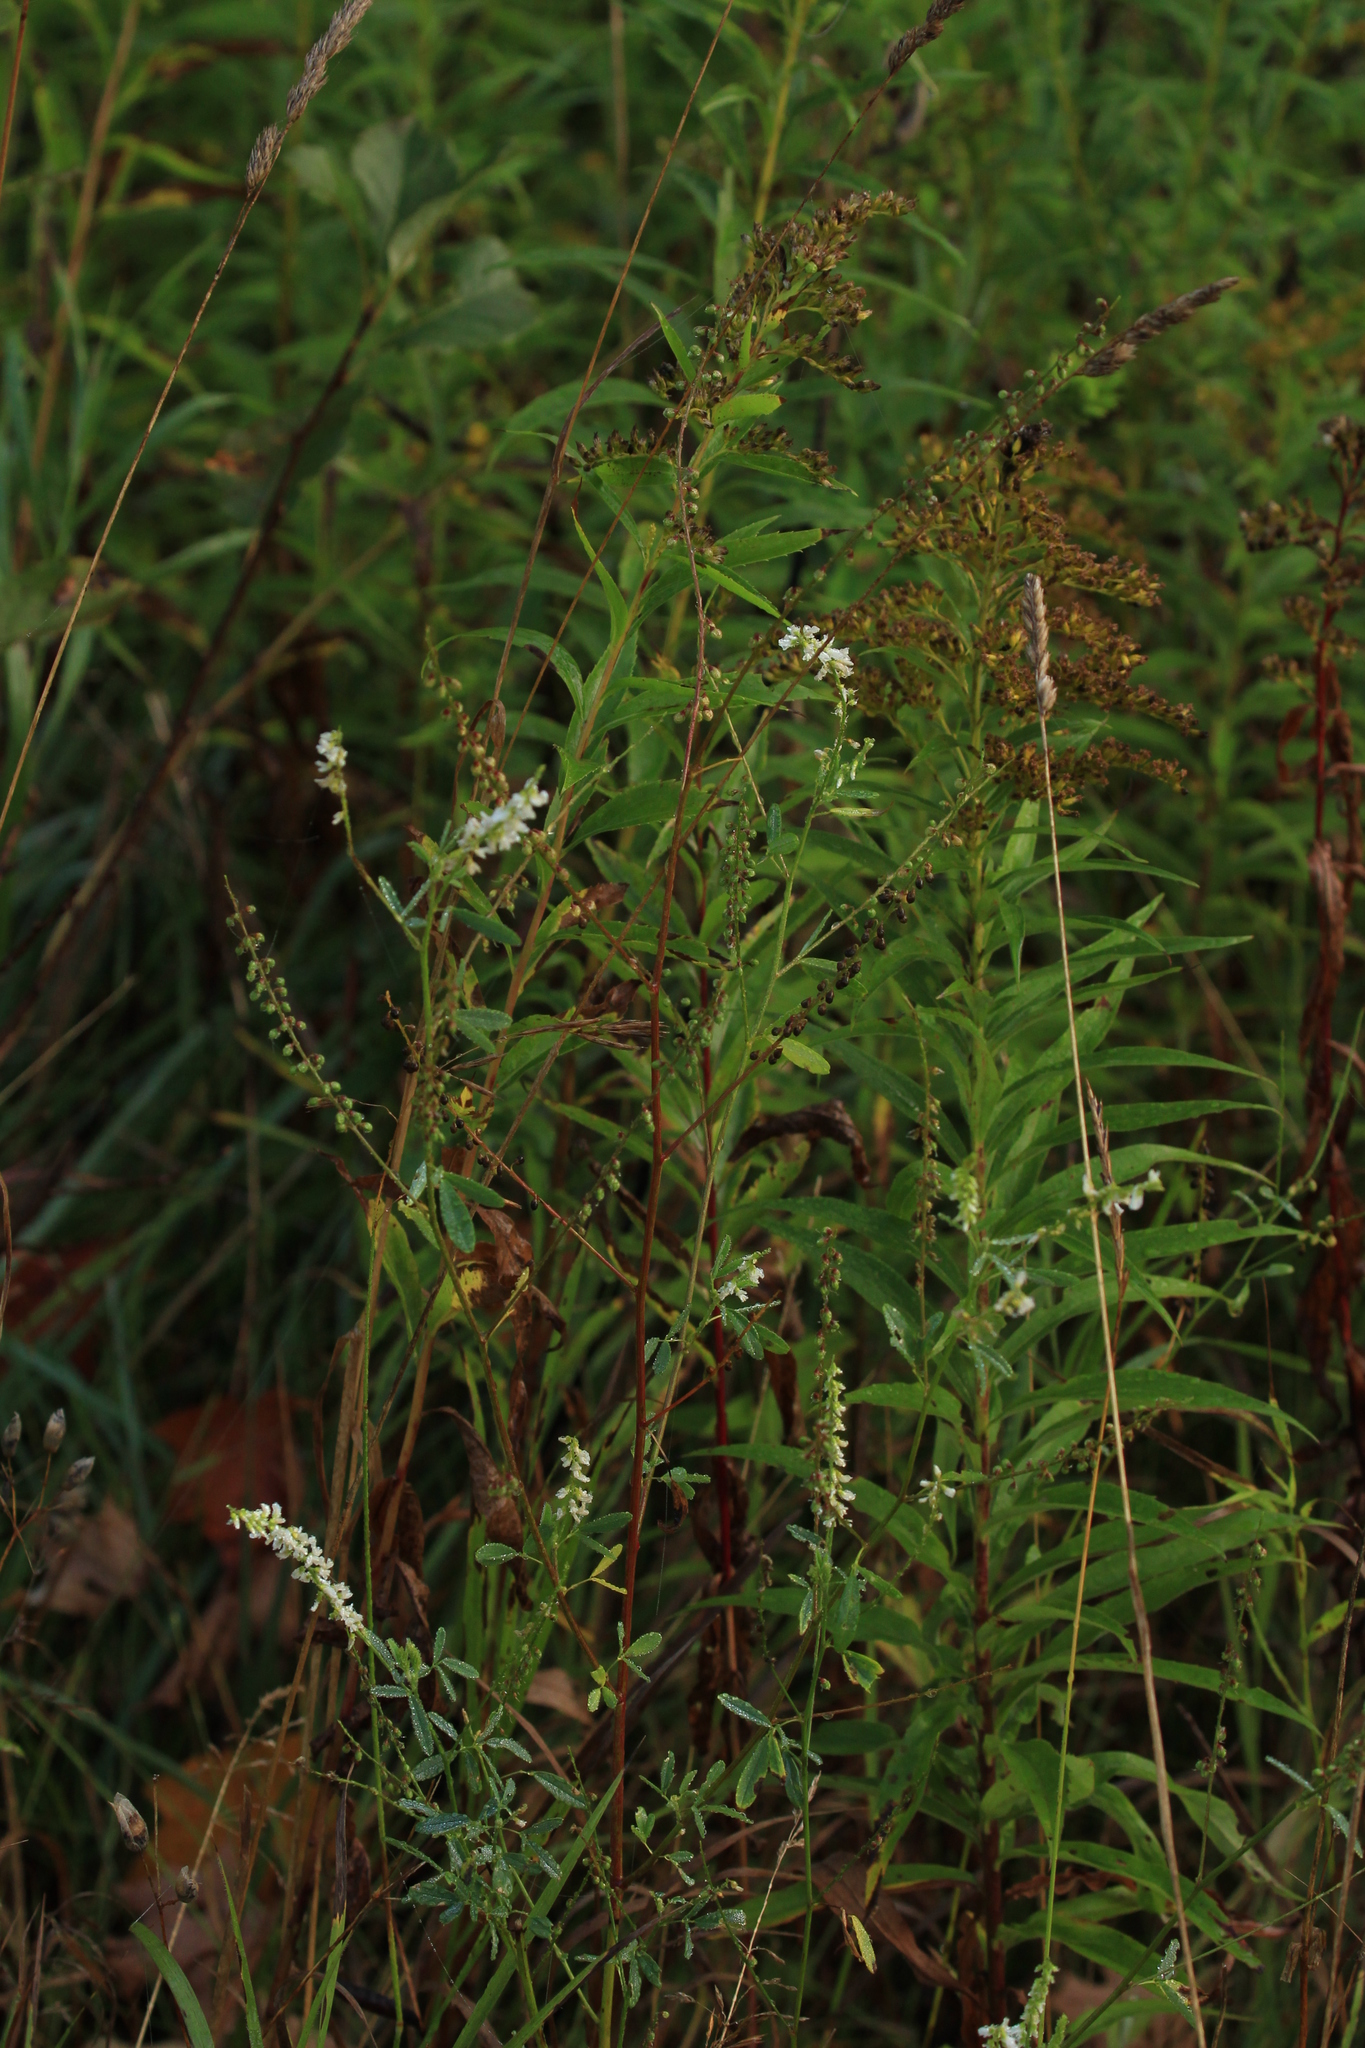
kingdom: Plantae
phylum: Tracheophyta
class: Magnoliopsida
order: Fabales
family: Fabaceae
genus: Melilotus
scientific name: Melilotus albus
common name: White melilot
